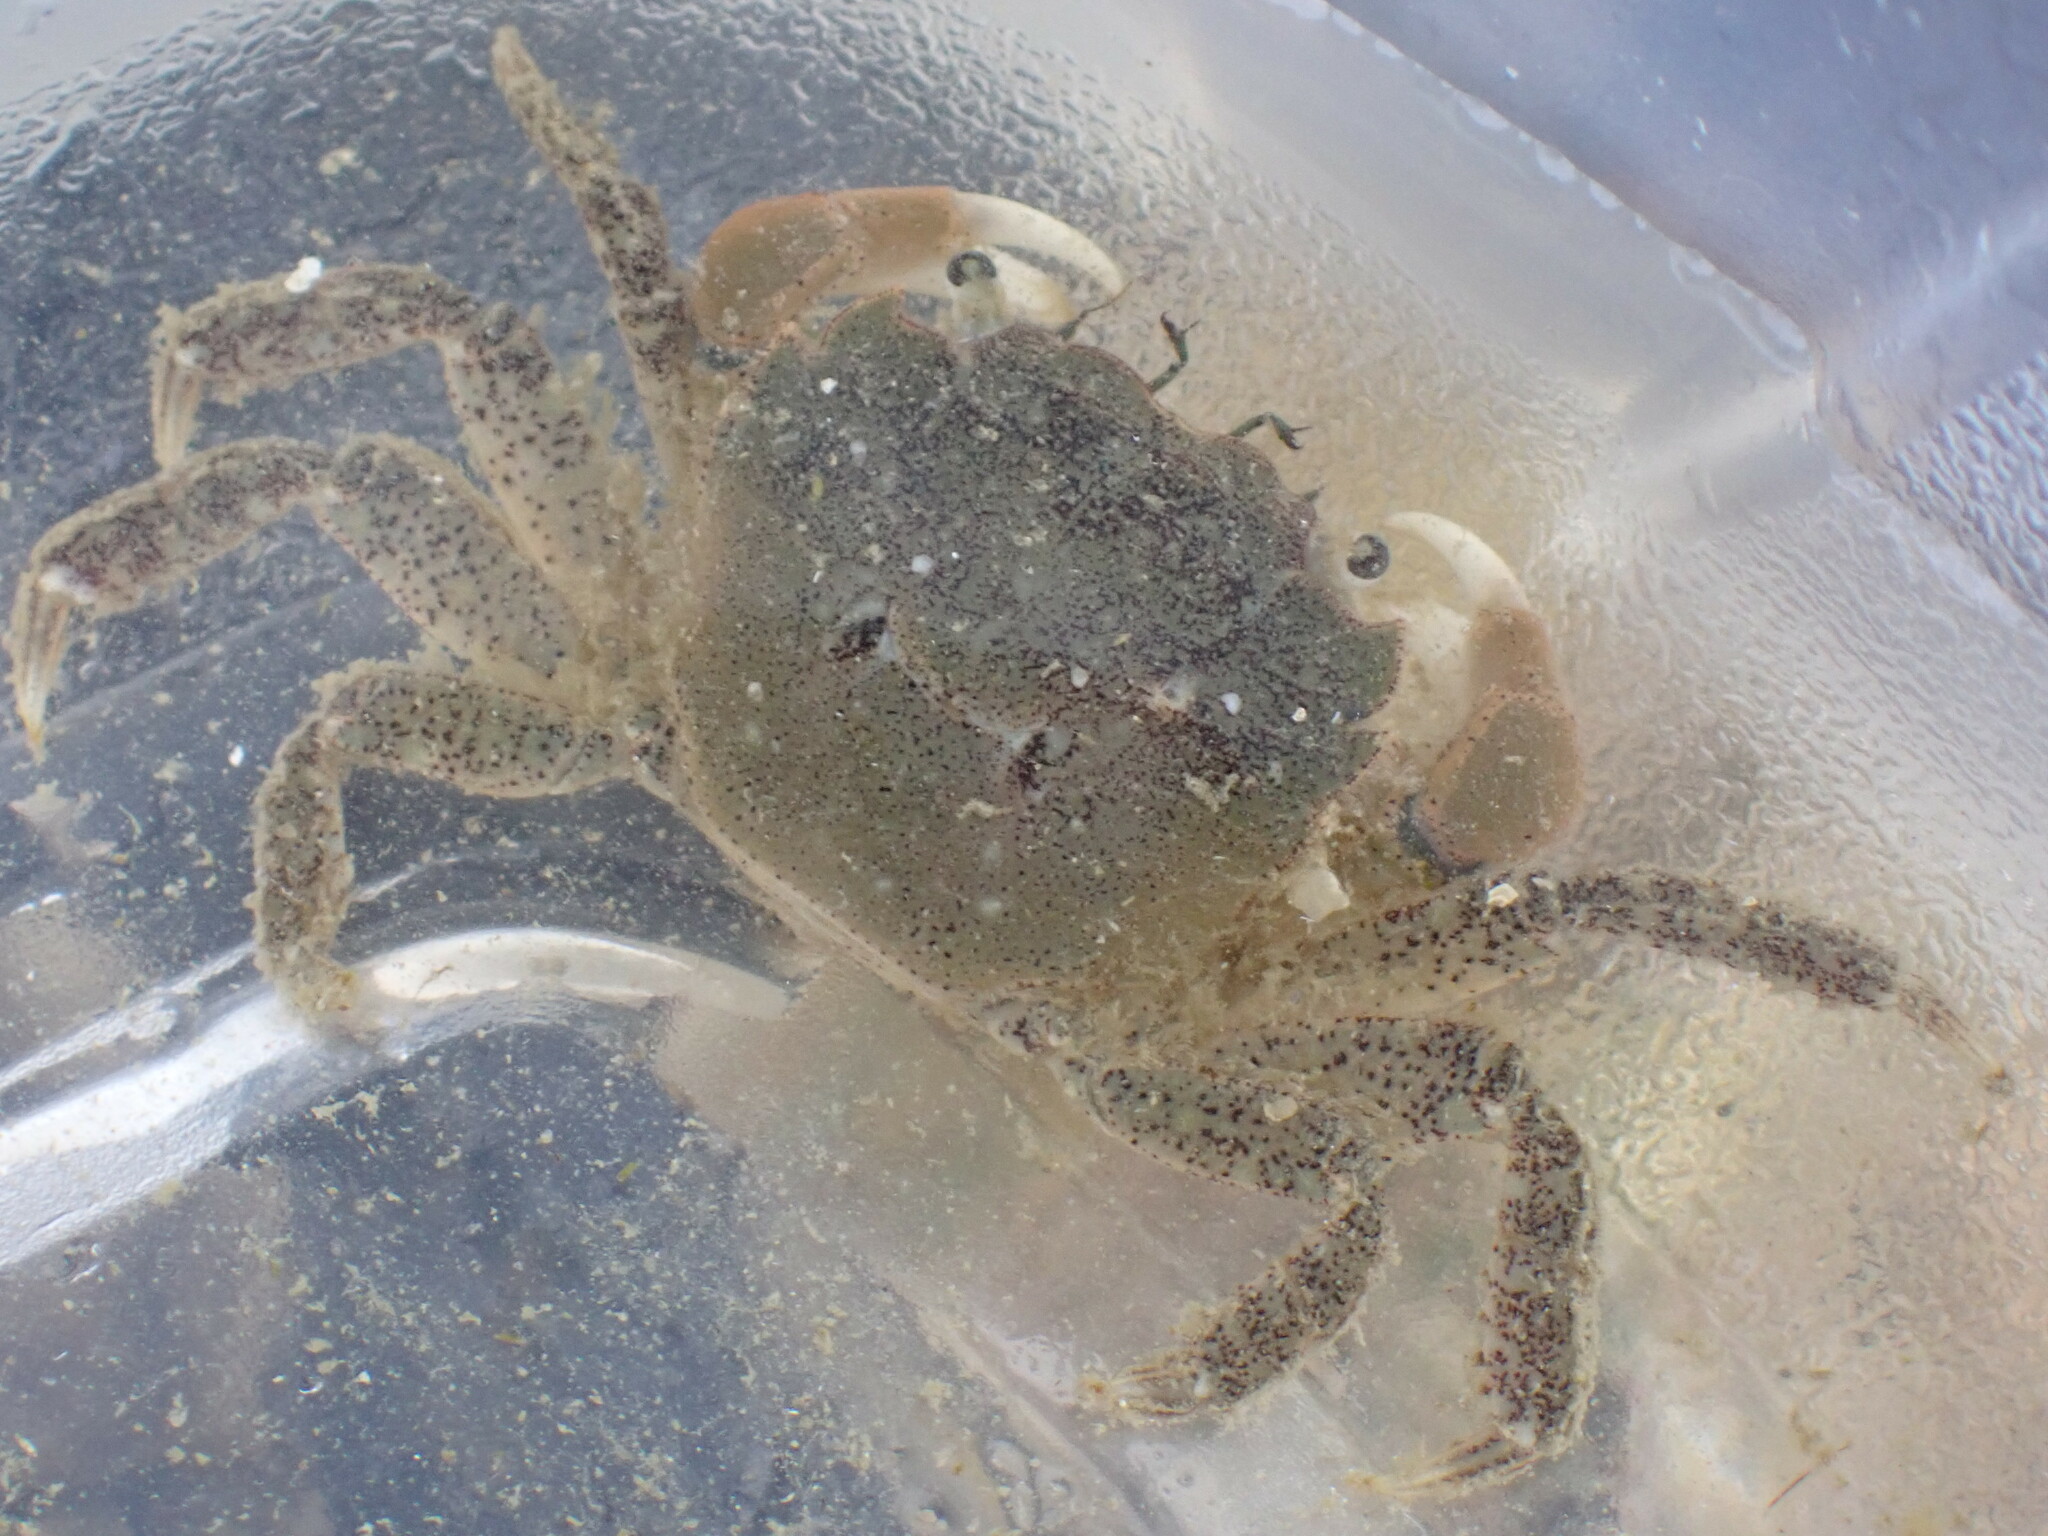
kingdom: Animalia
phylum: Arthropoda
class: Malacostraca
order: Decapoda
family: Varunidae
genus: Hemigrapsus
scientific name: Hemigrapsus oregonensis
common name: Yellow shore crab
